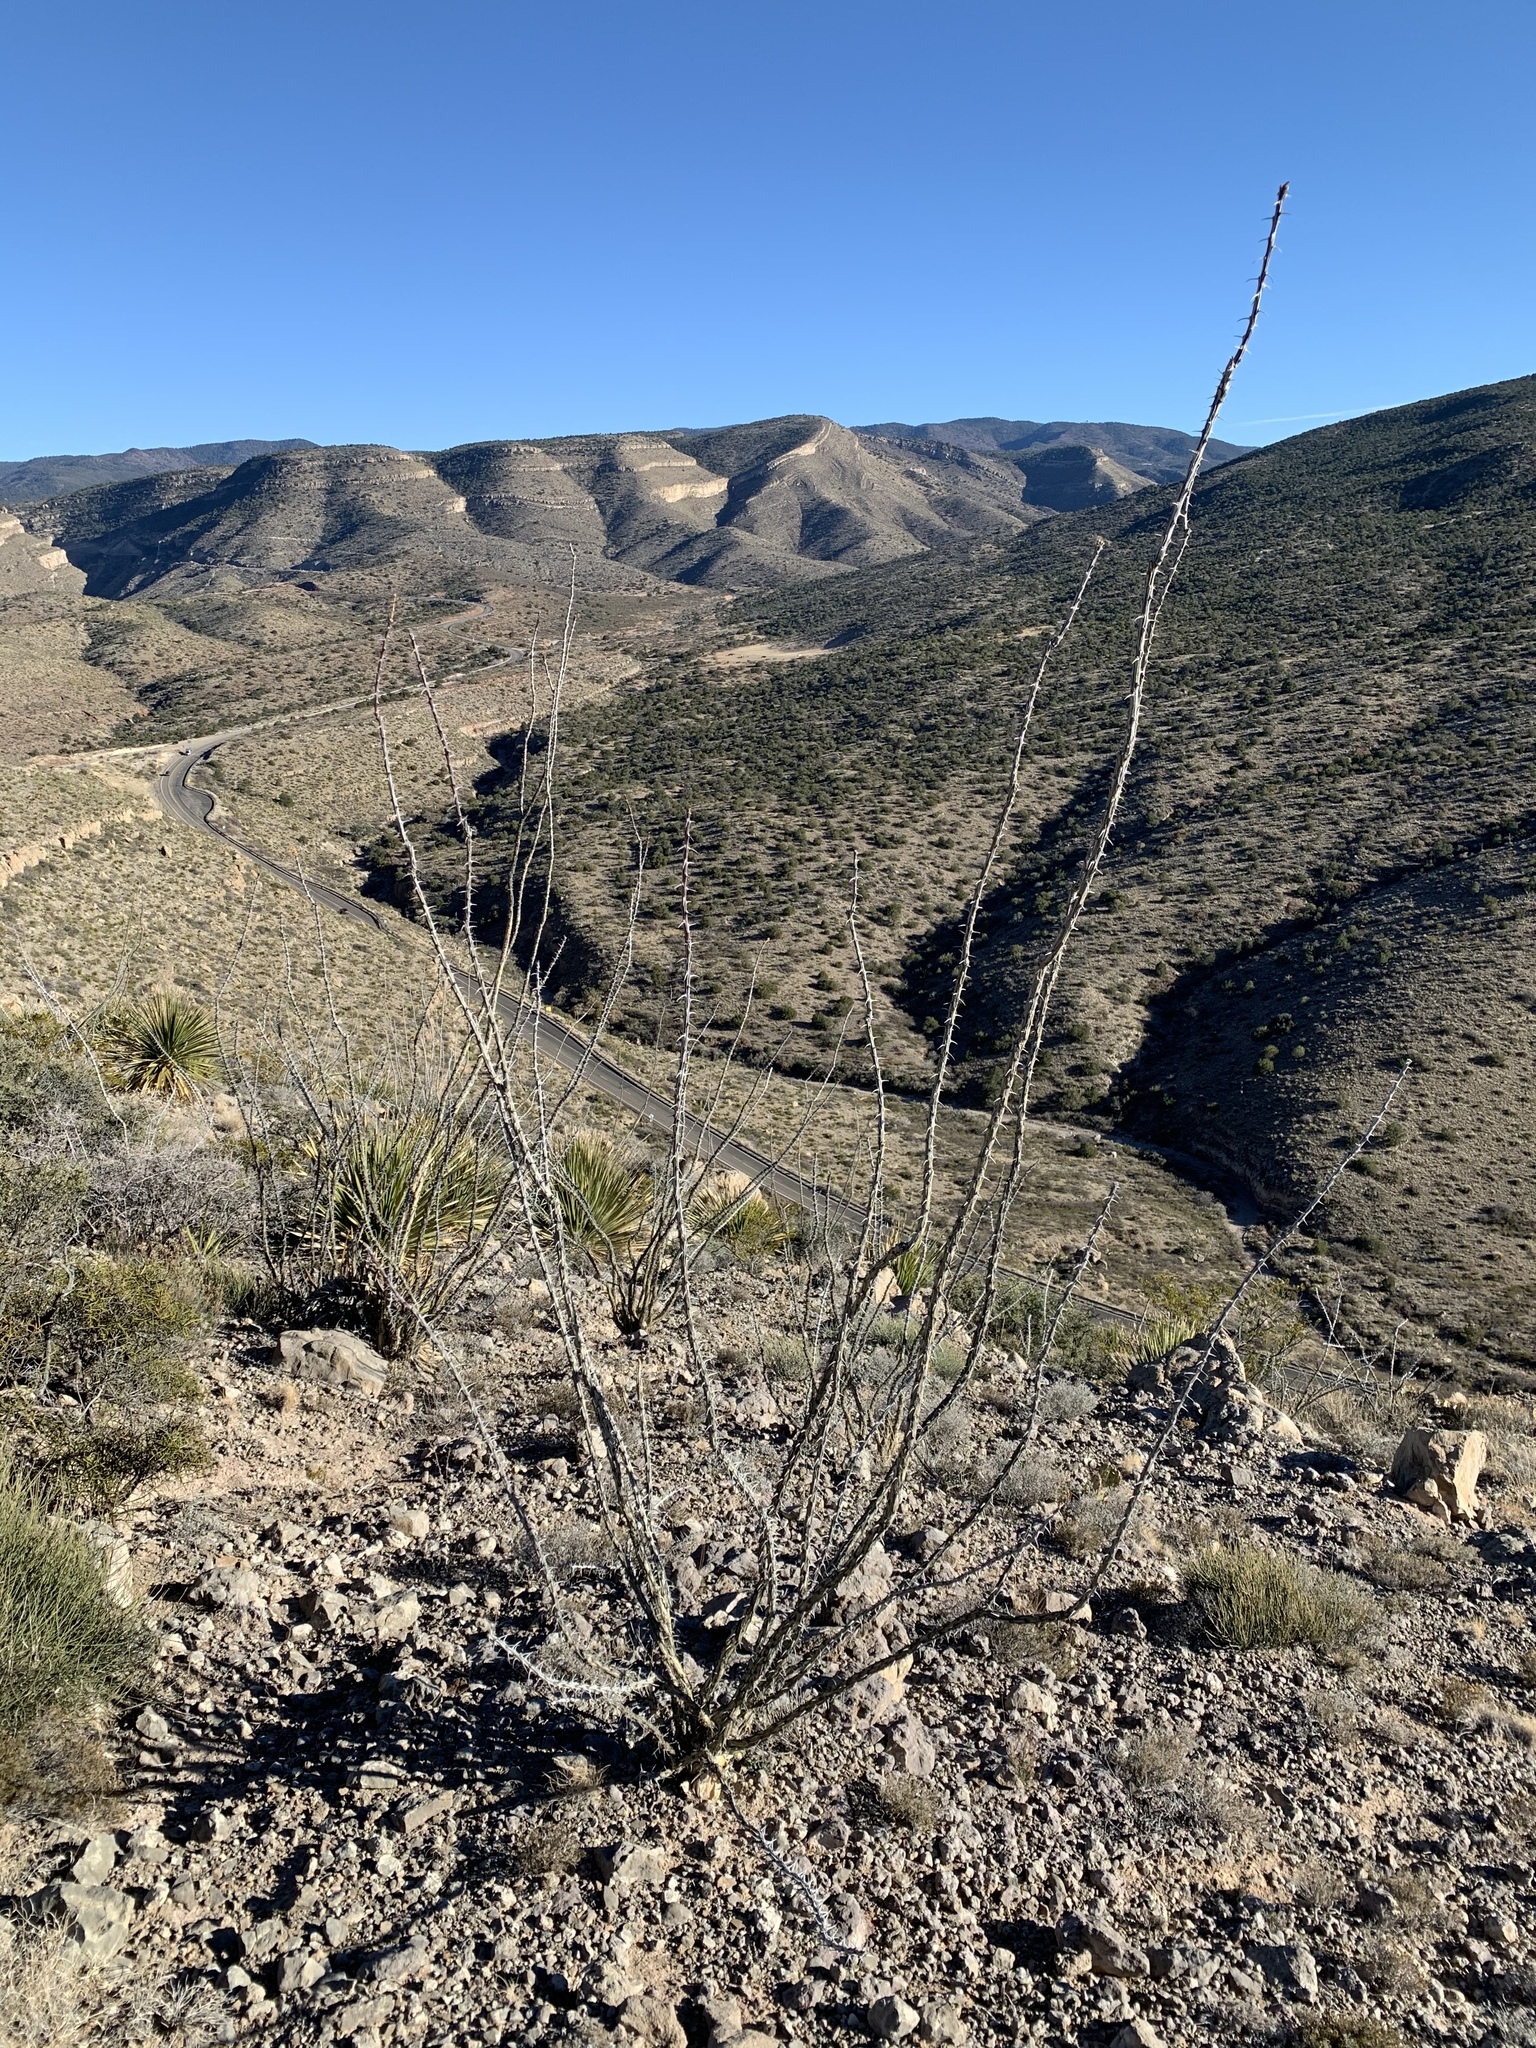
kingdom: Plantae
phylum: Tracheophyta
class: Magnoliopsida
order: Ericales
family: Fouquieriaceae
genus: Fouquieria
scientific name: Fouquieria splendens
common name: Vine-cactus
